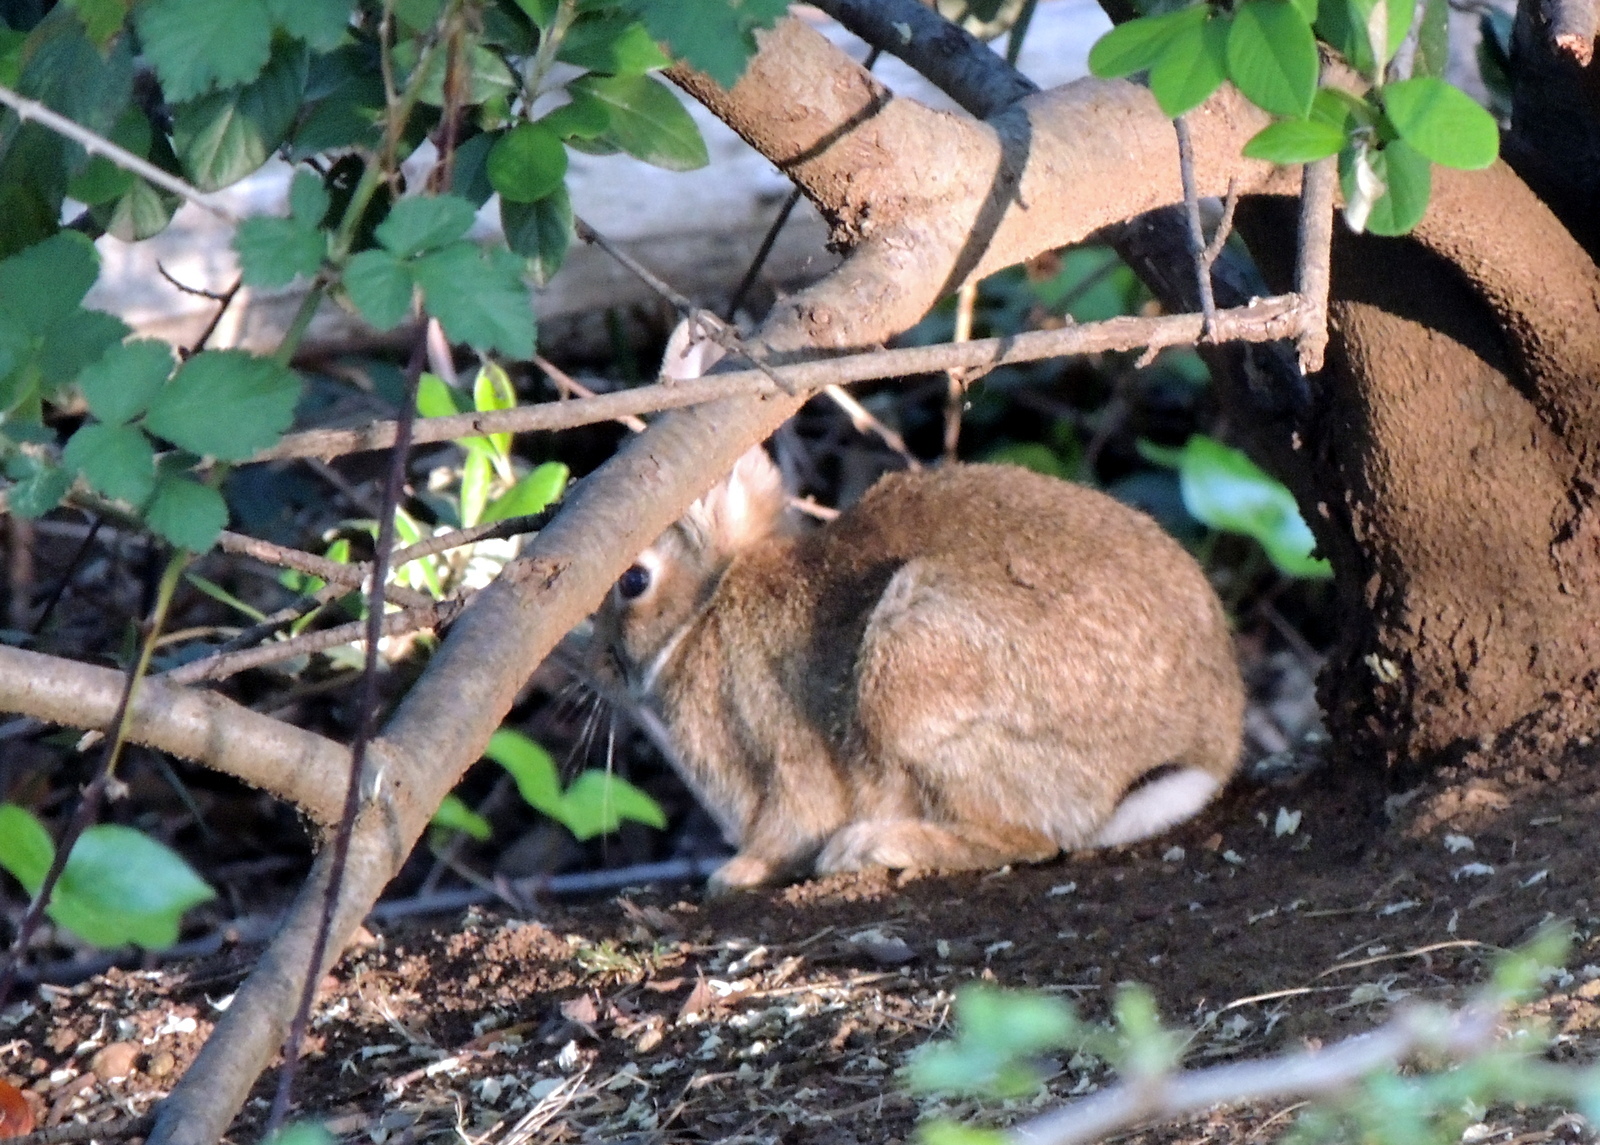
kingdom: Animalia
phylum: Chordata
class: Mammalia
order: Lagomorpha
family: Leporidae
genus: Oryctolagus
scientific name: Oryctolagus cuniculus
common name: European rabbit
